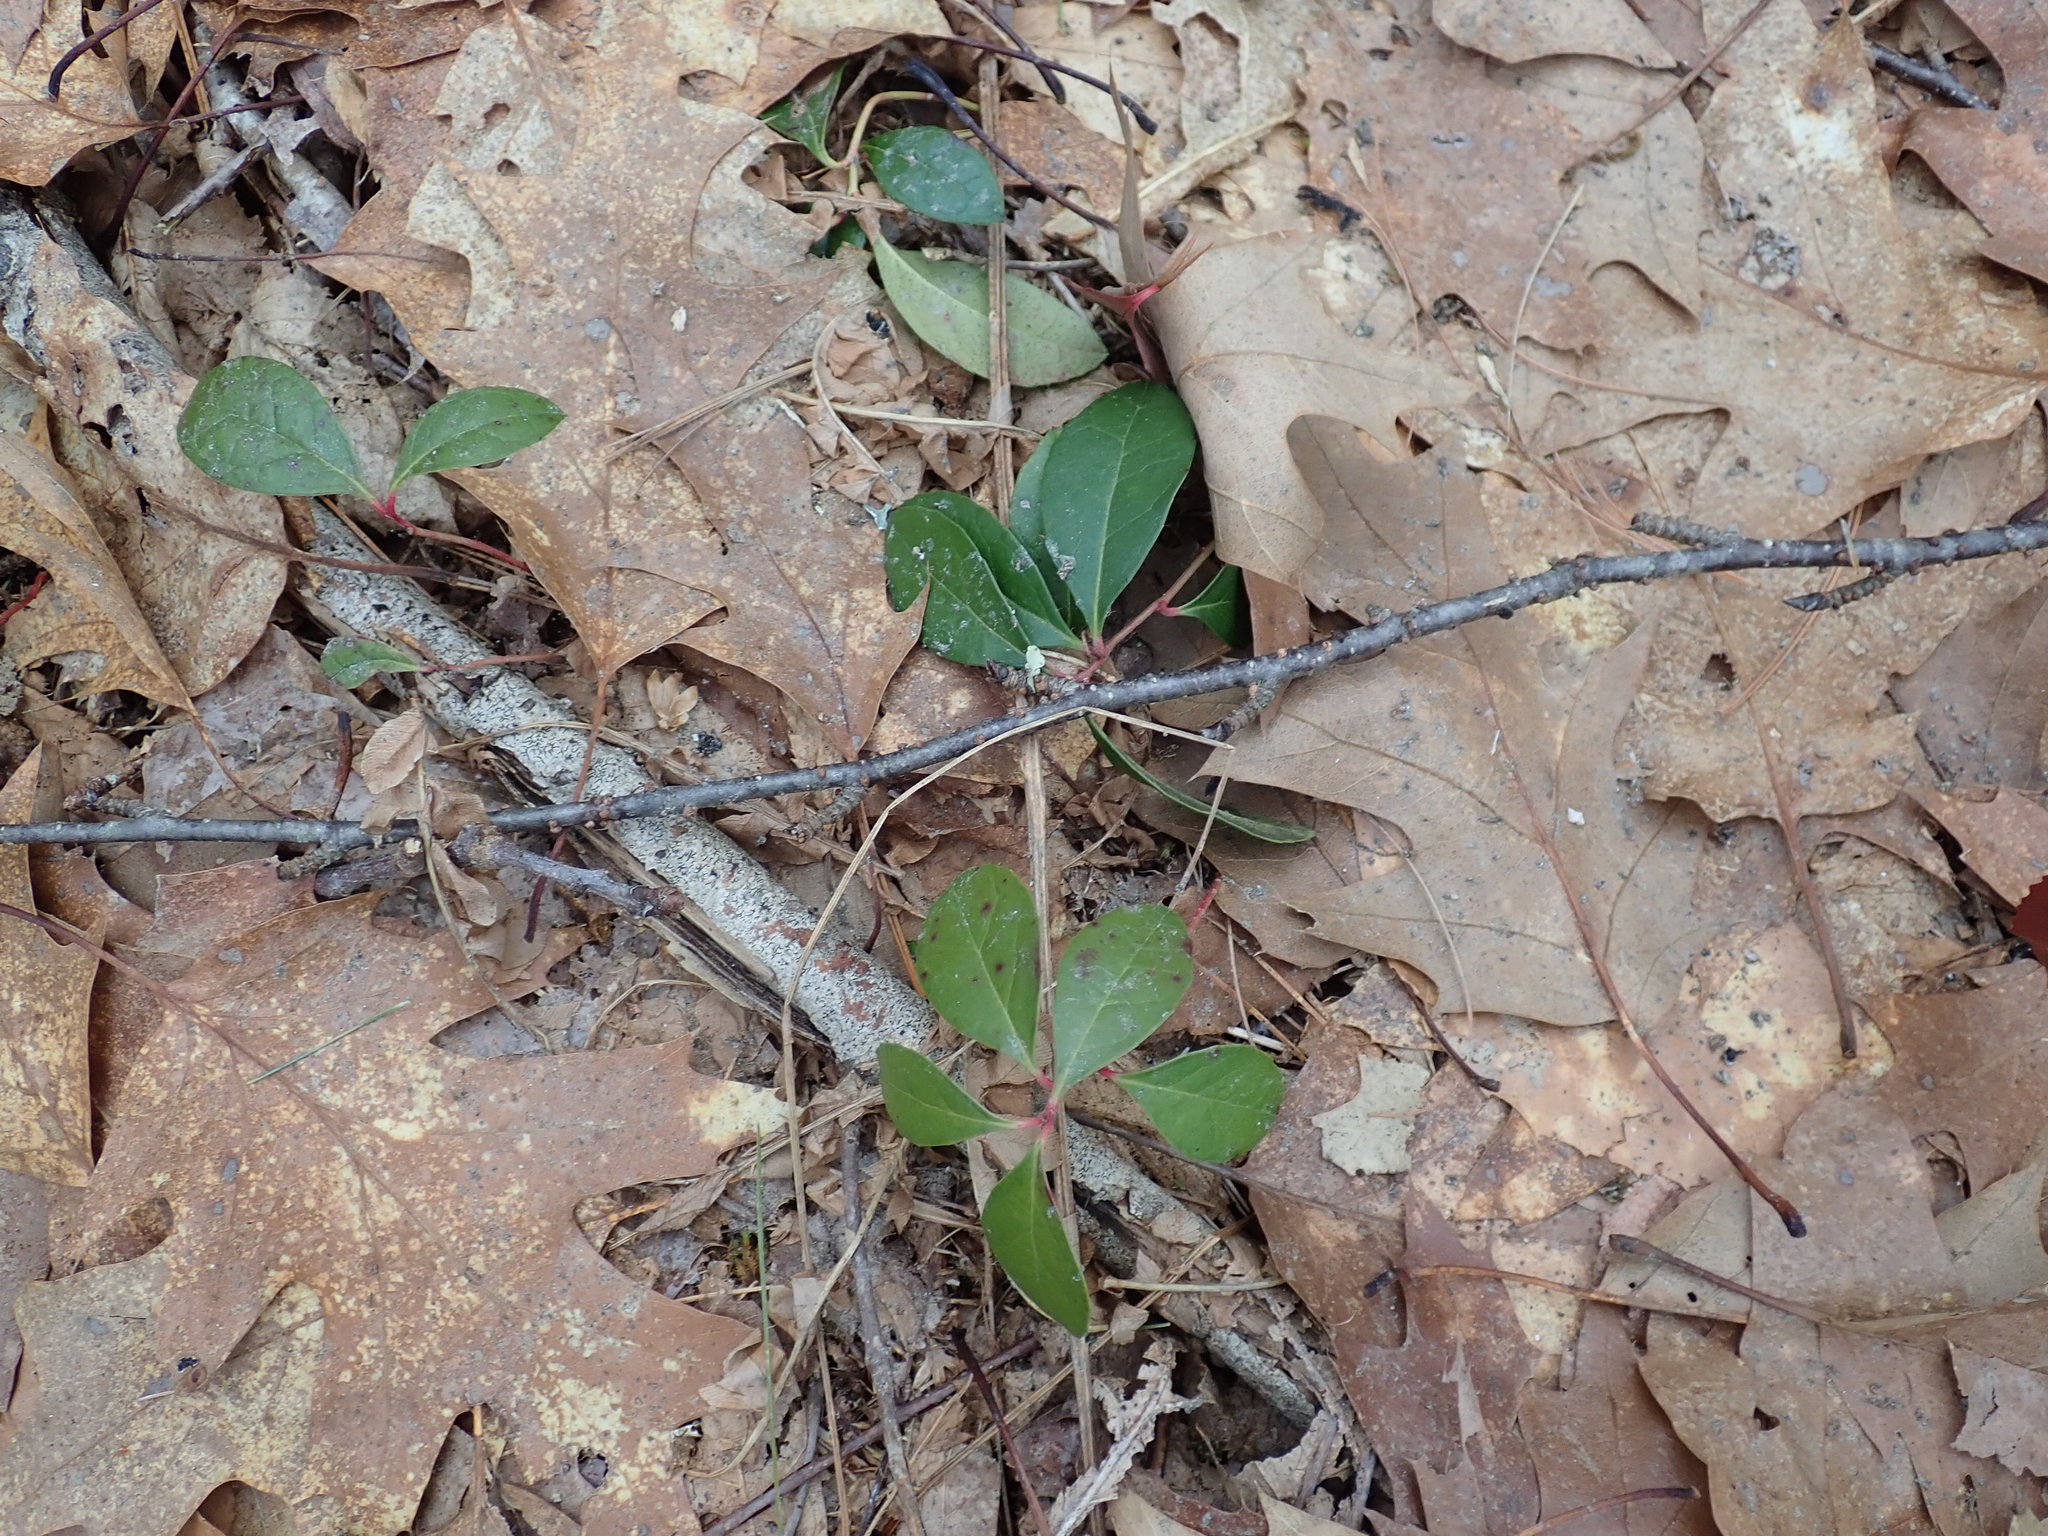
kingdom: Plantae
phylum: Tracheophyta
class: Magnoliopsida
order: Ericales
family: Ericaceae
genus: Gaultheria
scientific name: Gaultheria procumbens
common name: Checkerberry
